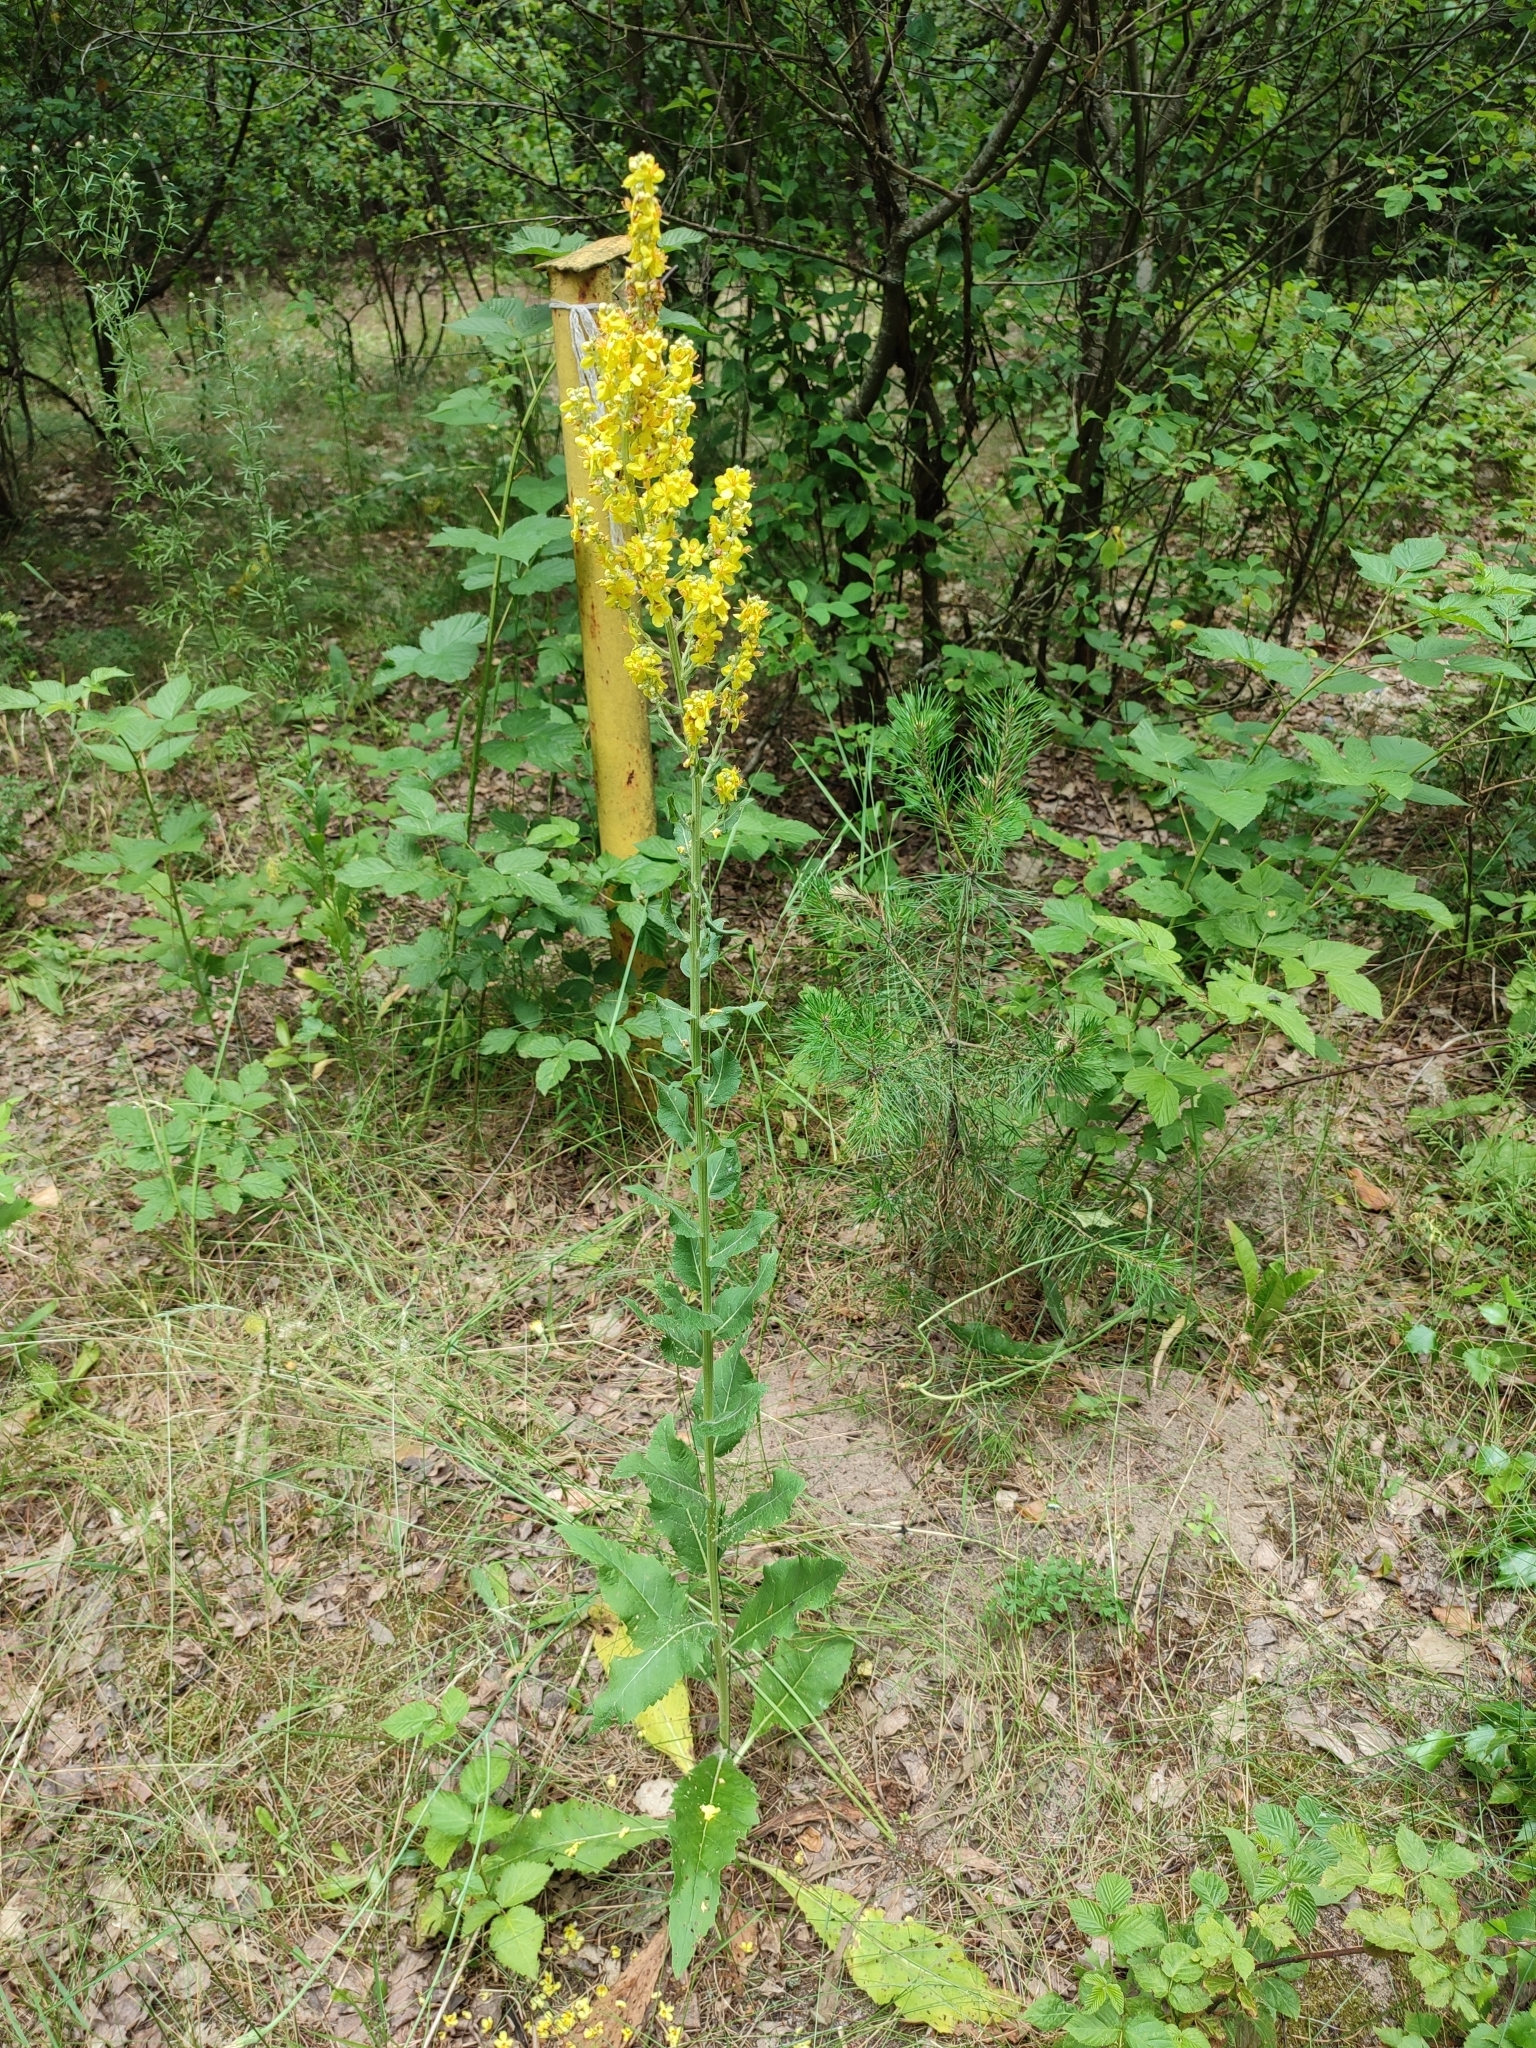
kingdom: Plantae
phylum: Tracheophyta
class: Magnoliopsida
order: Lamiales
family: Scrophulariaceae
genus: Verbascum
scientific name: Verbascum lychnitis
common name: White mullein
